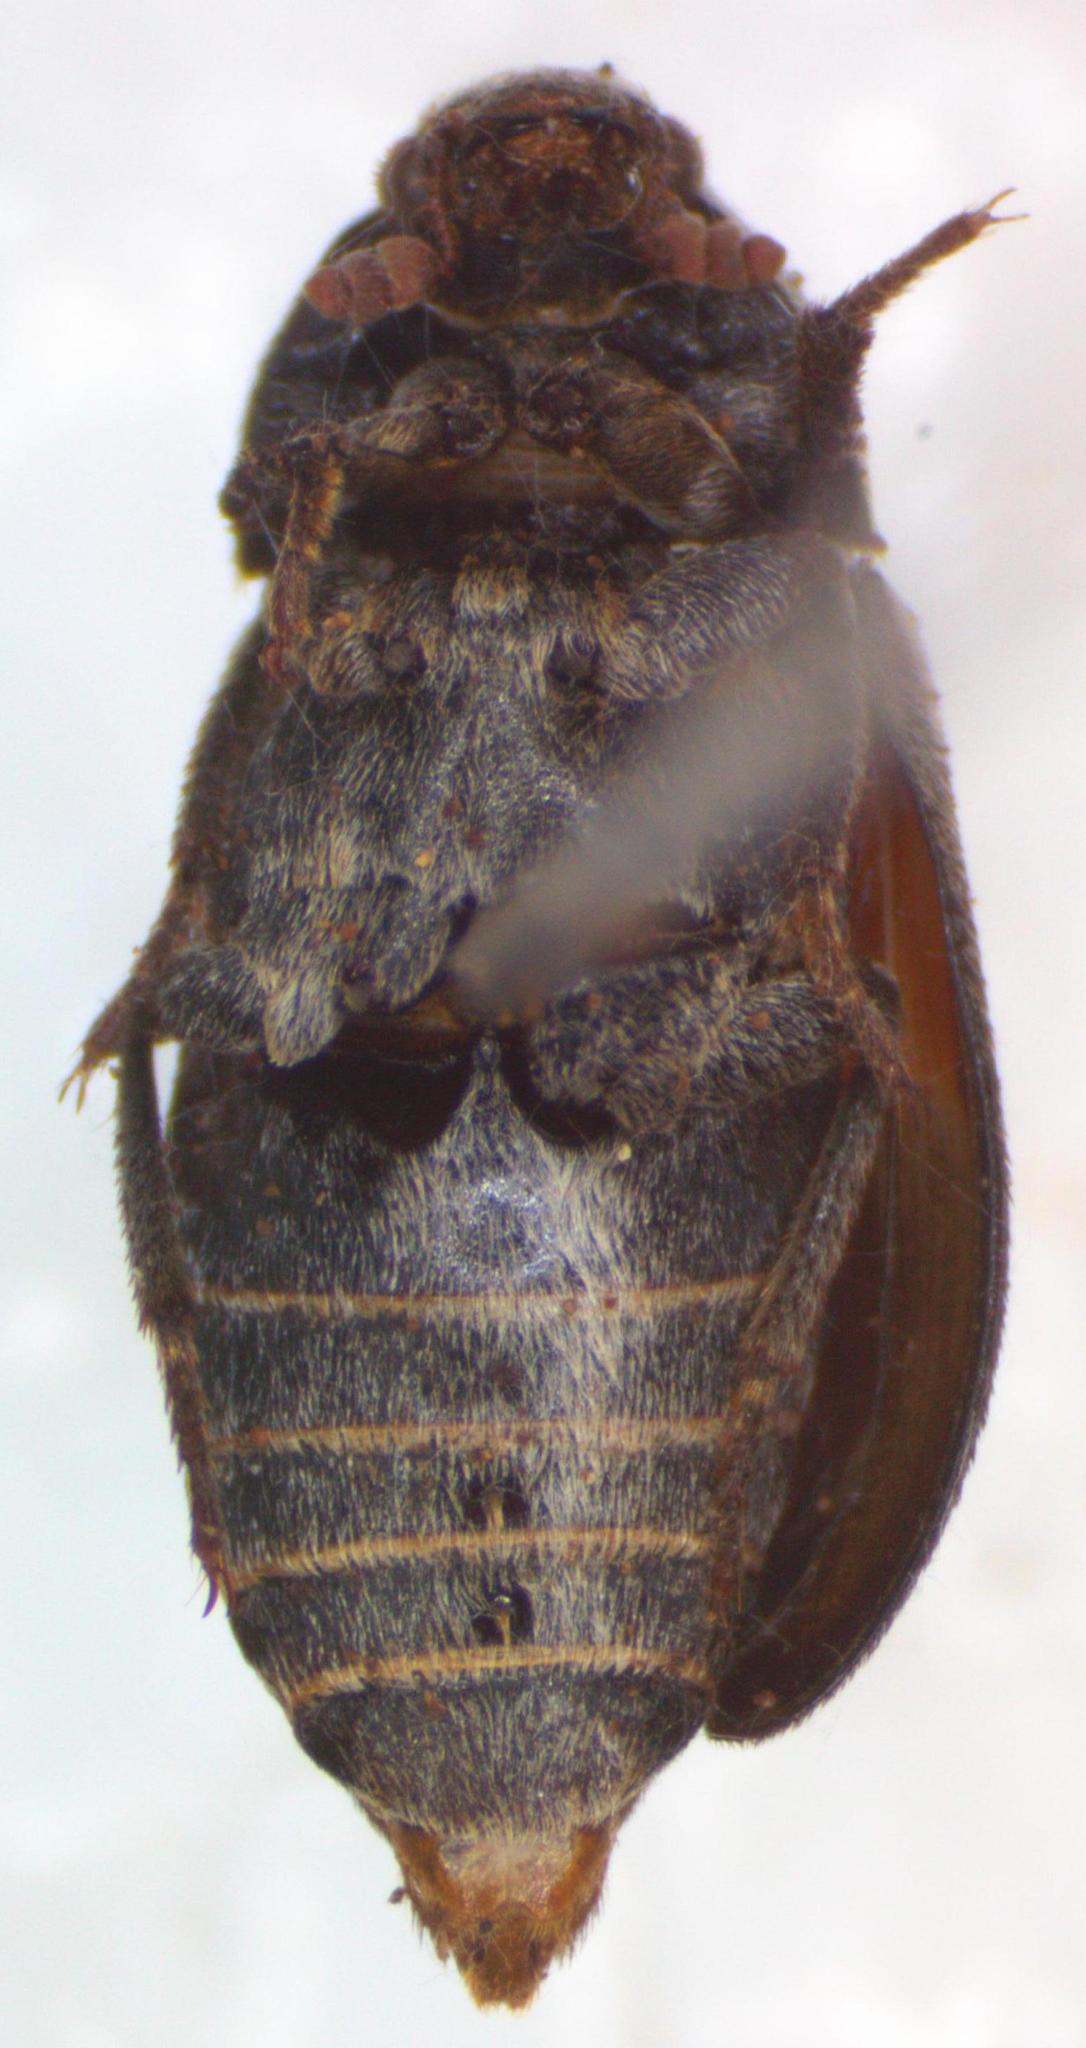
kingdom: Animalia
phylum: Arthropoda
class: Insecta
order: Coleoptera
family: Dermestidae
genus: Dermestes
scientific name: Dermestes carnivorus
